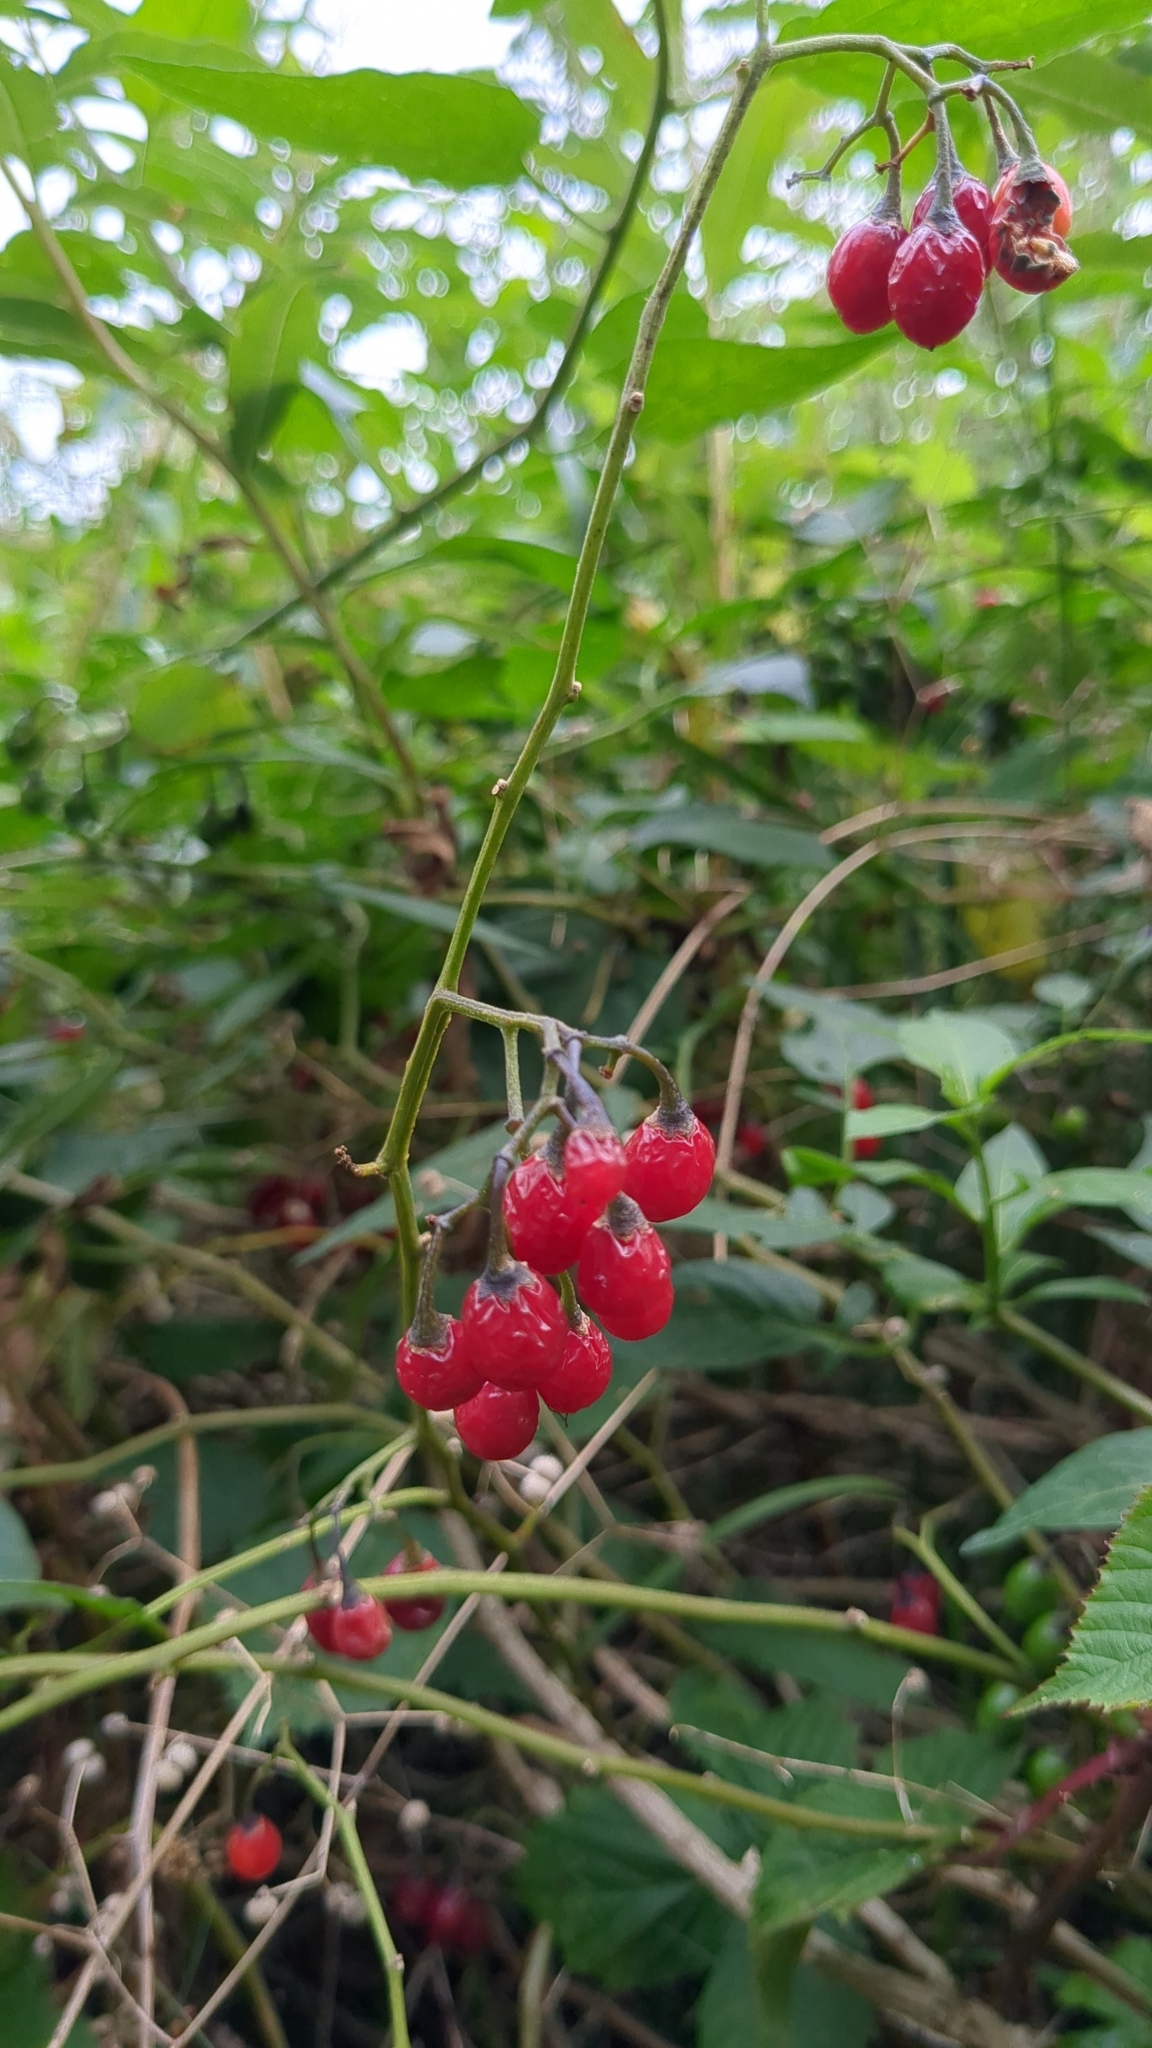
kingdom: Plantae
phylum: Tracheophyta
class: Magnoliopsida
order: Solanales
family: Solanaceae
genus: Solanum
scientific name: Solanum dulcamara
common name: Climbing nightshade
